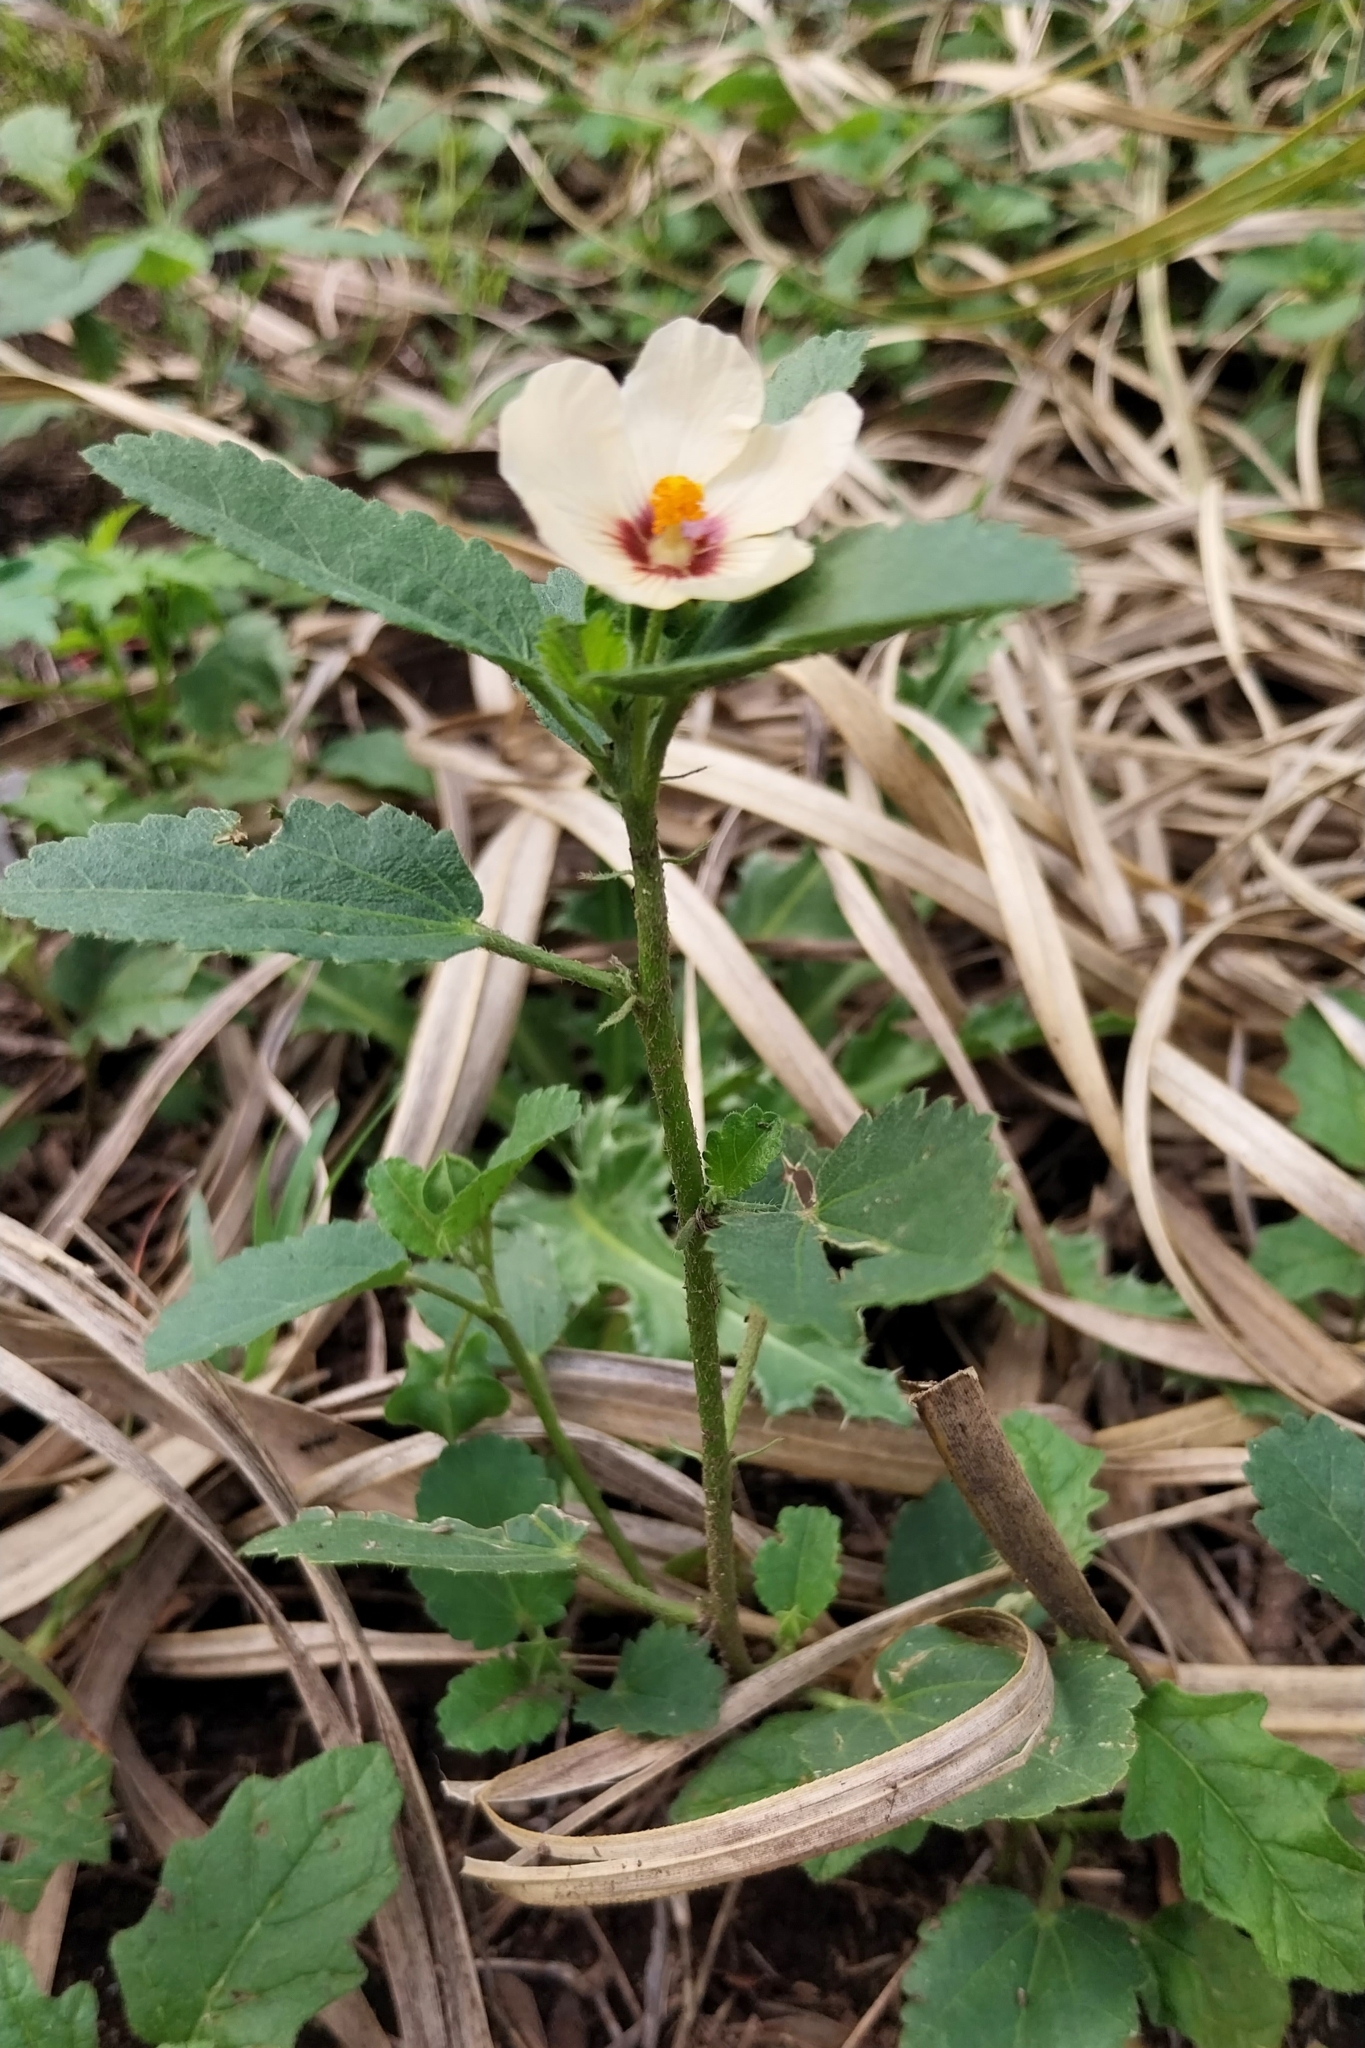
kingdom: Plantae
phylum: Tracheophyta
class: Magnoliopsida
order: Malvales
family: Malvaceae
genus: Sida
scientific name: Sida poeppigiana
